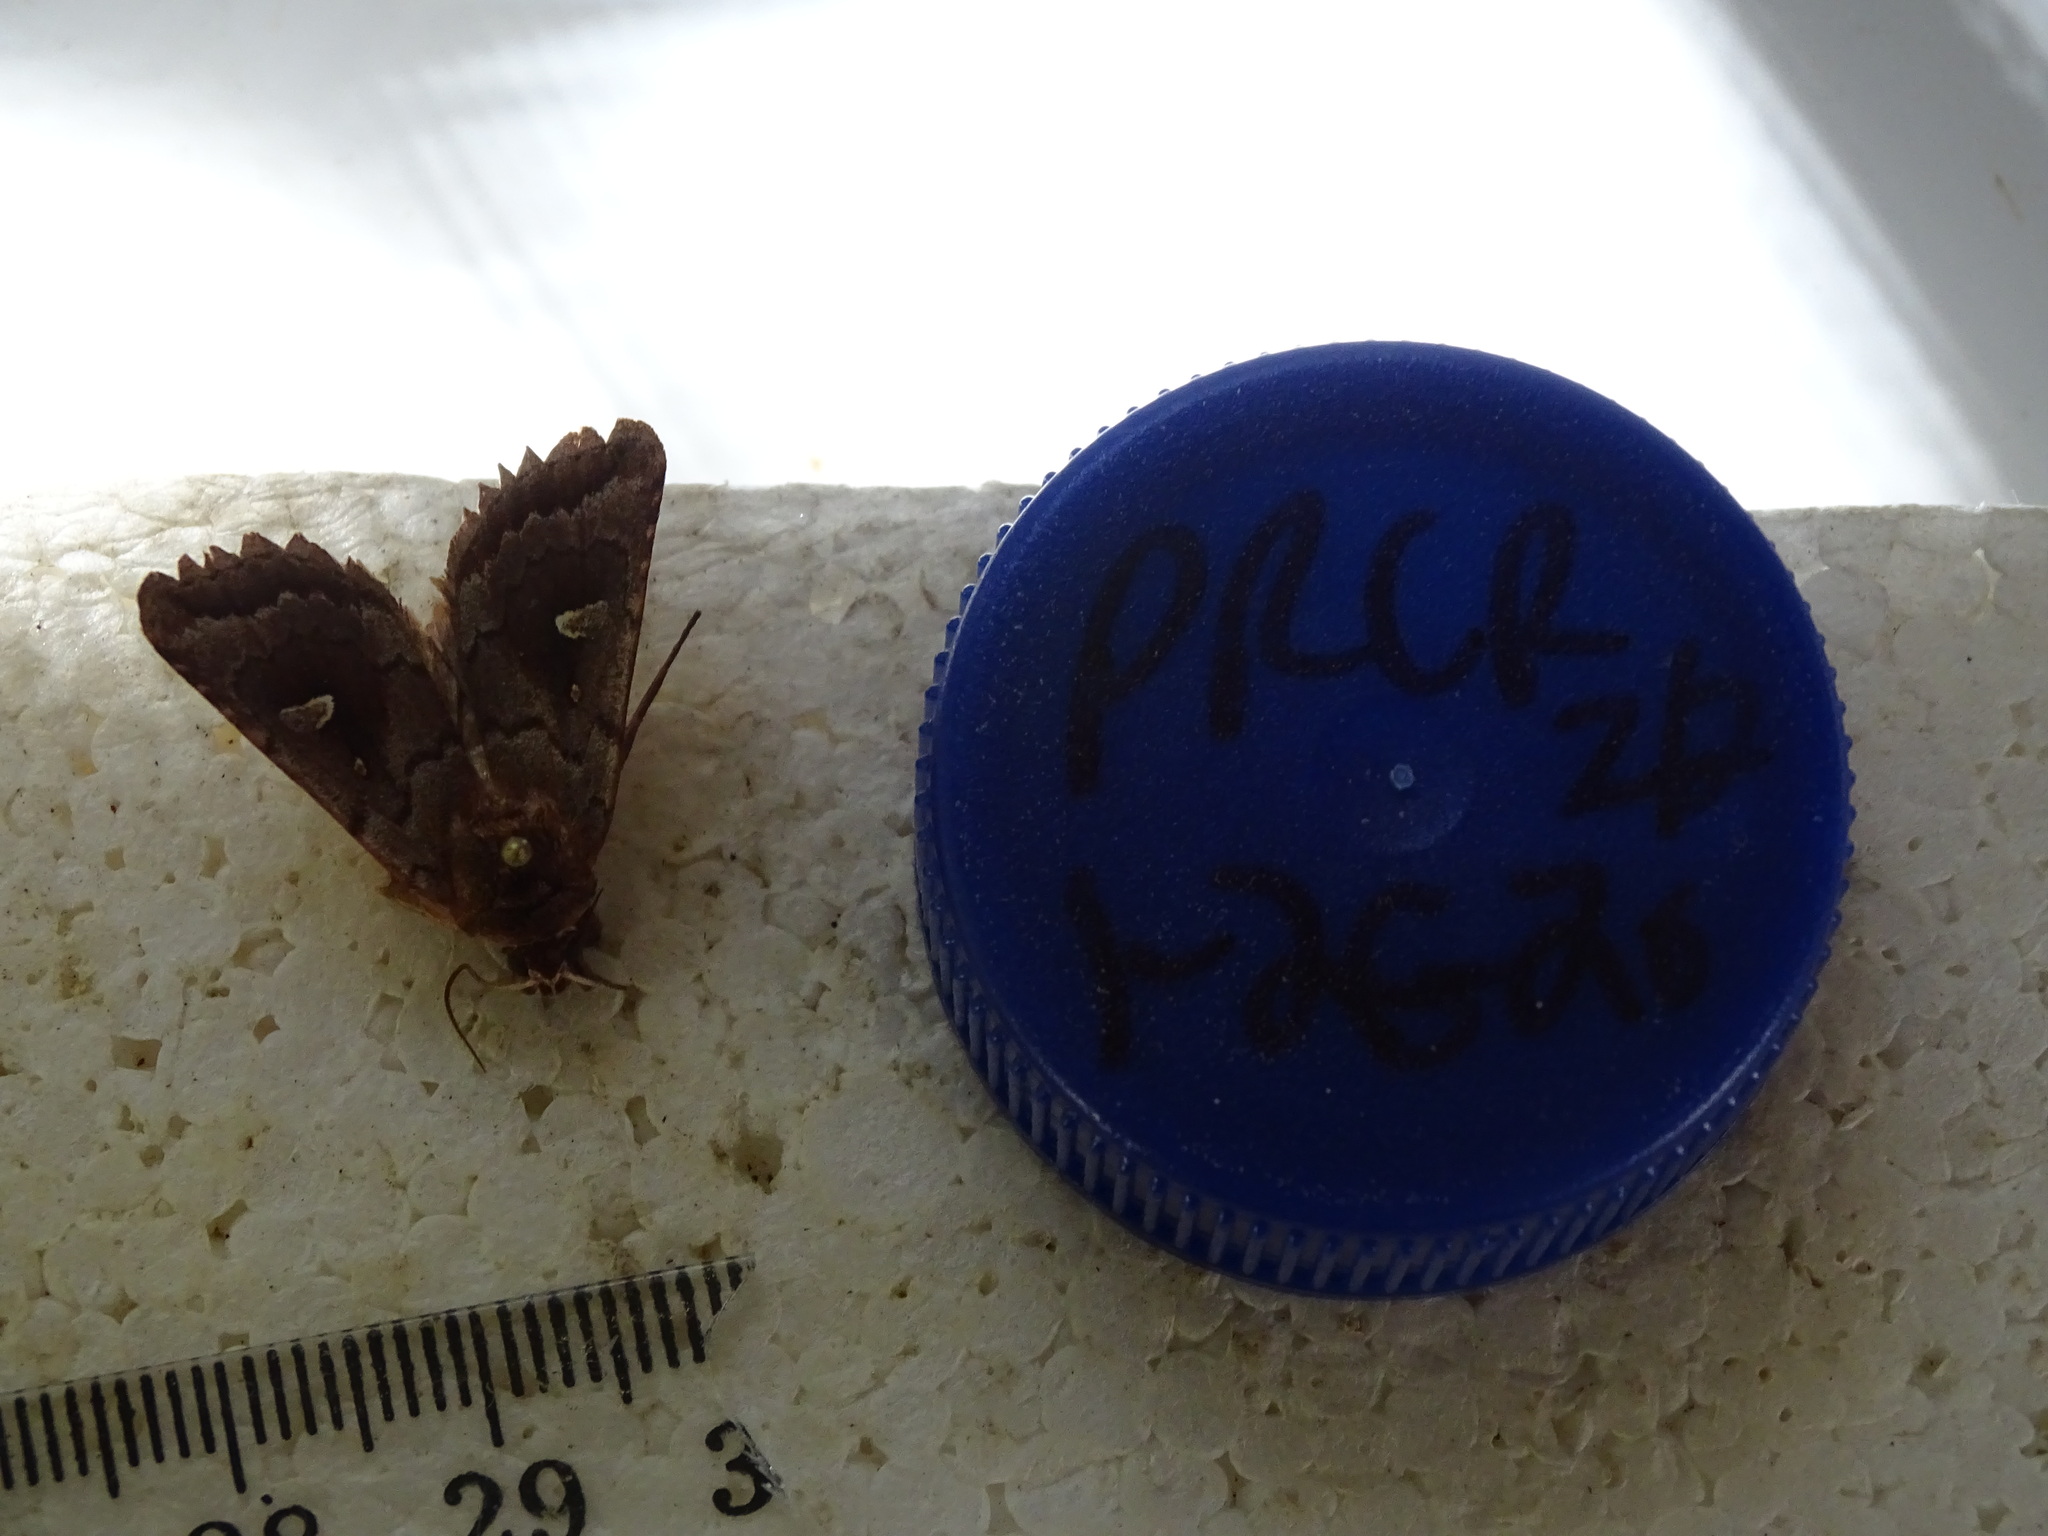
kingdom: Animalia
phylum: Arthropoda
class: Insecta
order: Lepidoptera
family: Noctuidae
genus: Iodopepla
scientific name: Iodopepla ualbum
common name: White-eyed borer moth
